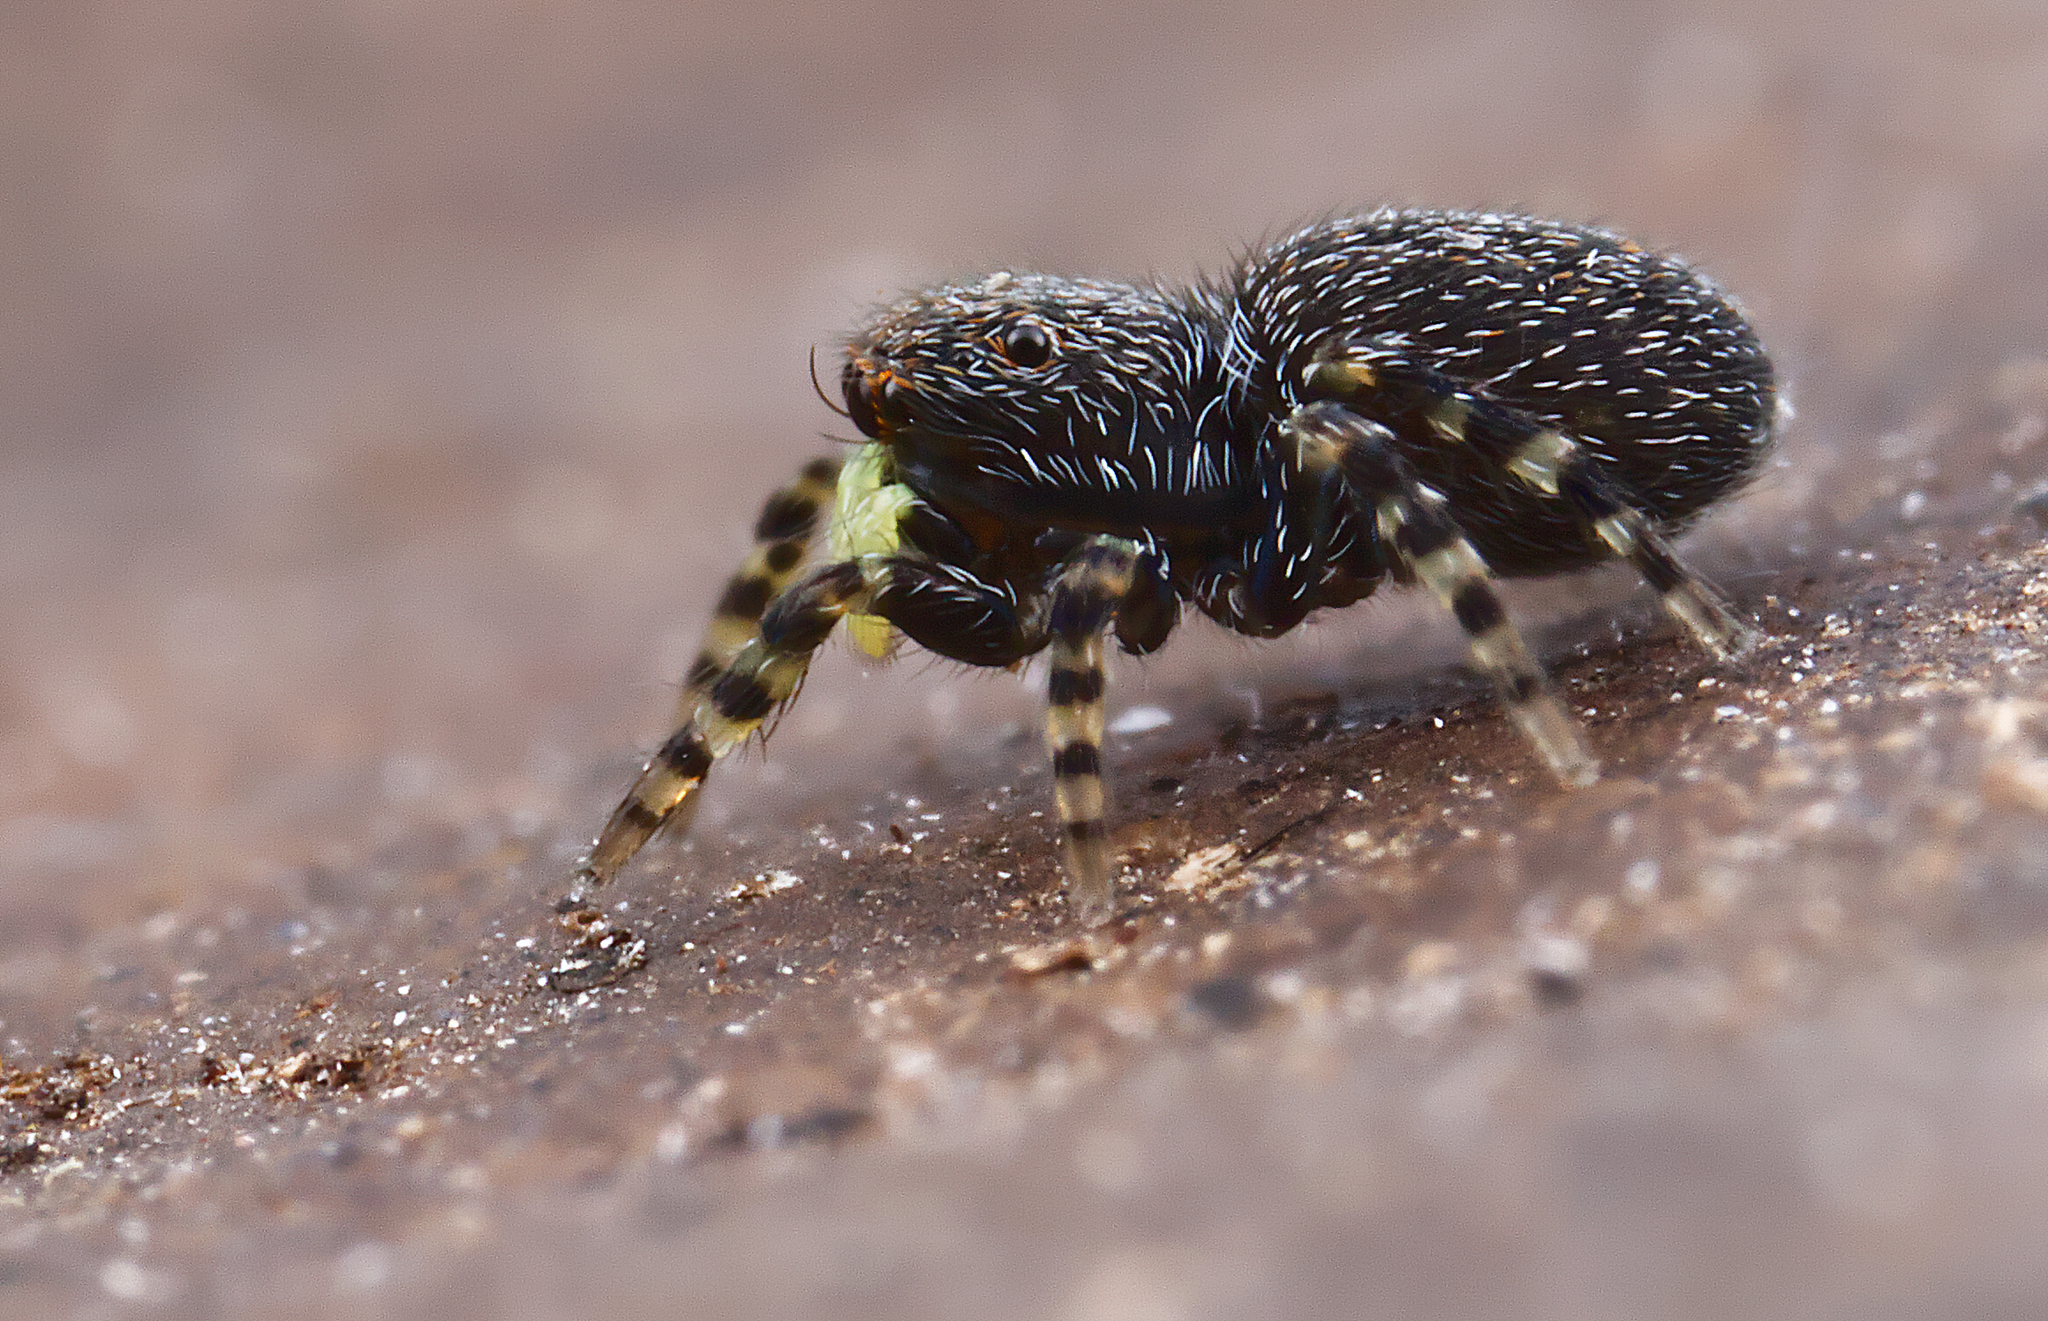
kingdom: Animalia
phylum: Arthropoda
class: Arachnida
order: Araneae
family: Salticidae
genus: Talavera
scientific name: Talavera minuta
